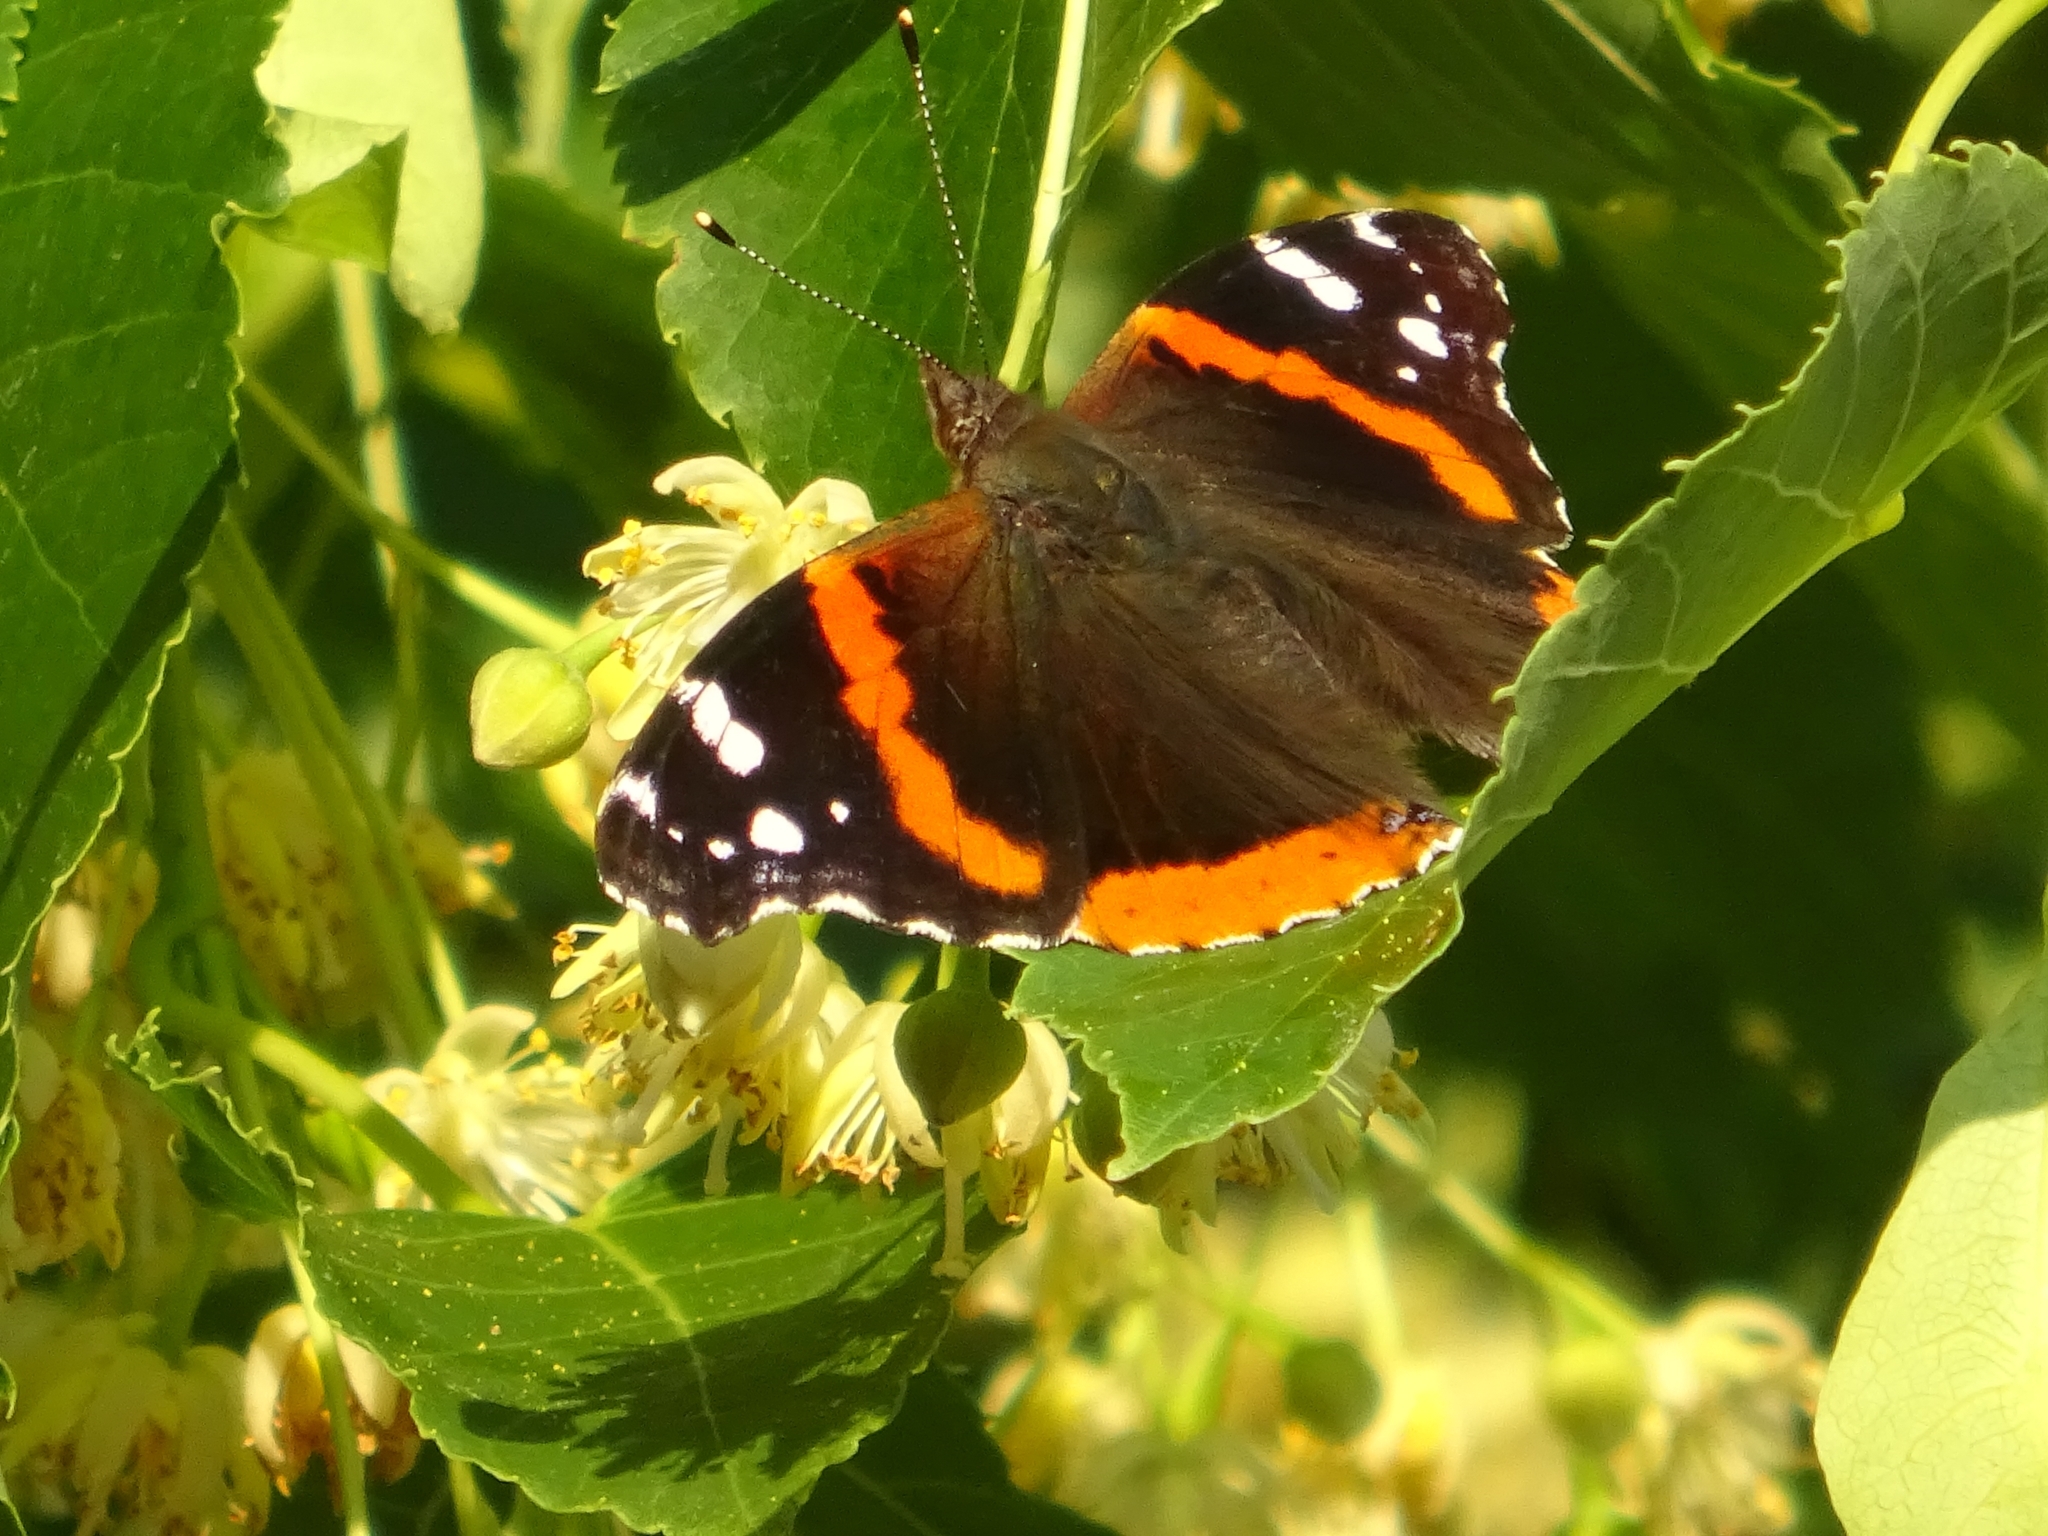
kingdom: Animalia
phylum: Arthropoda
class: Insecta
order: Lepidoptera
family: Nymphalidae
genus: Vanessa
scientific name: Vanessa atalanta
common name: Red admiral
